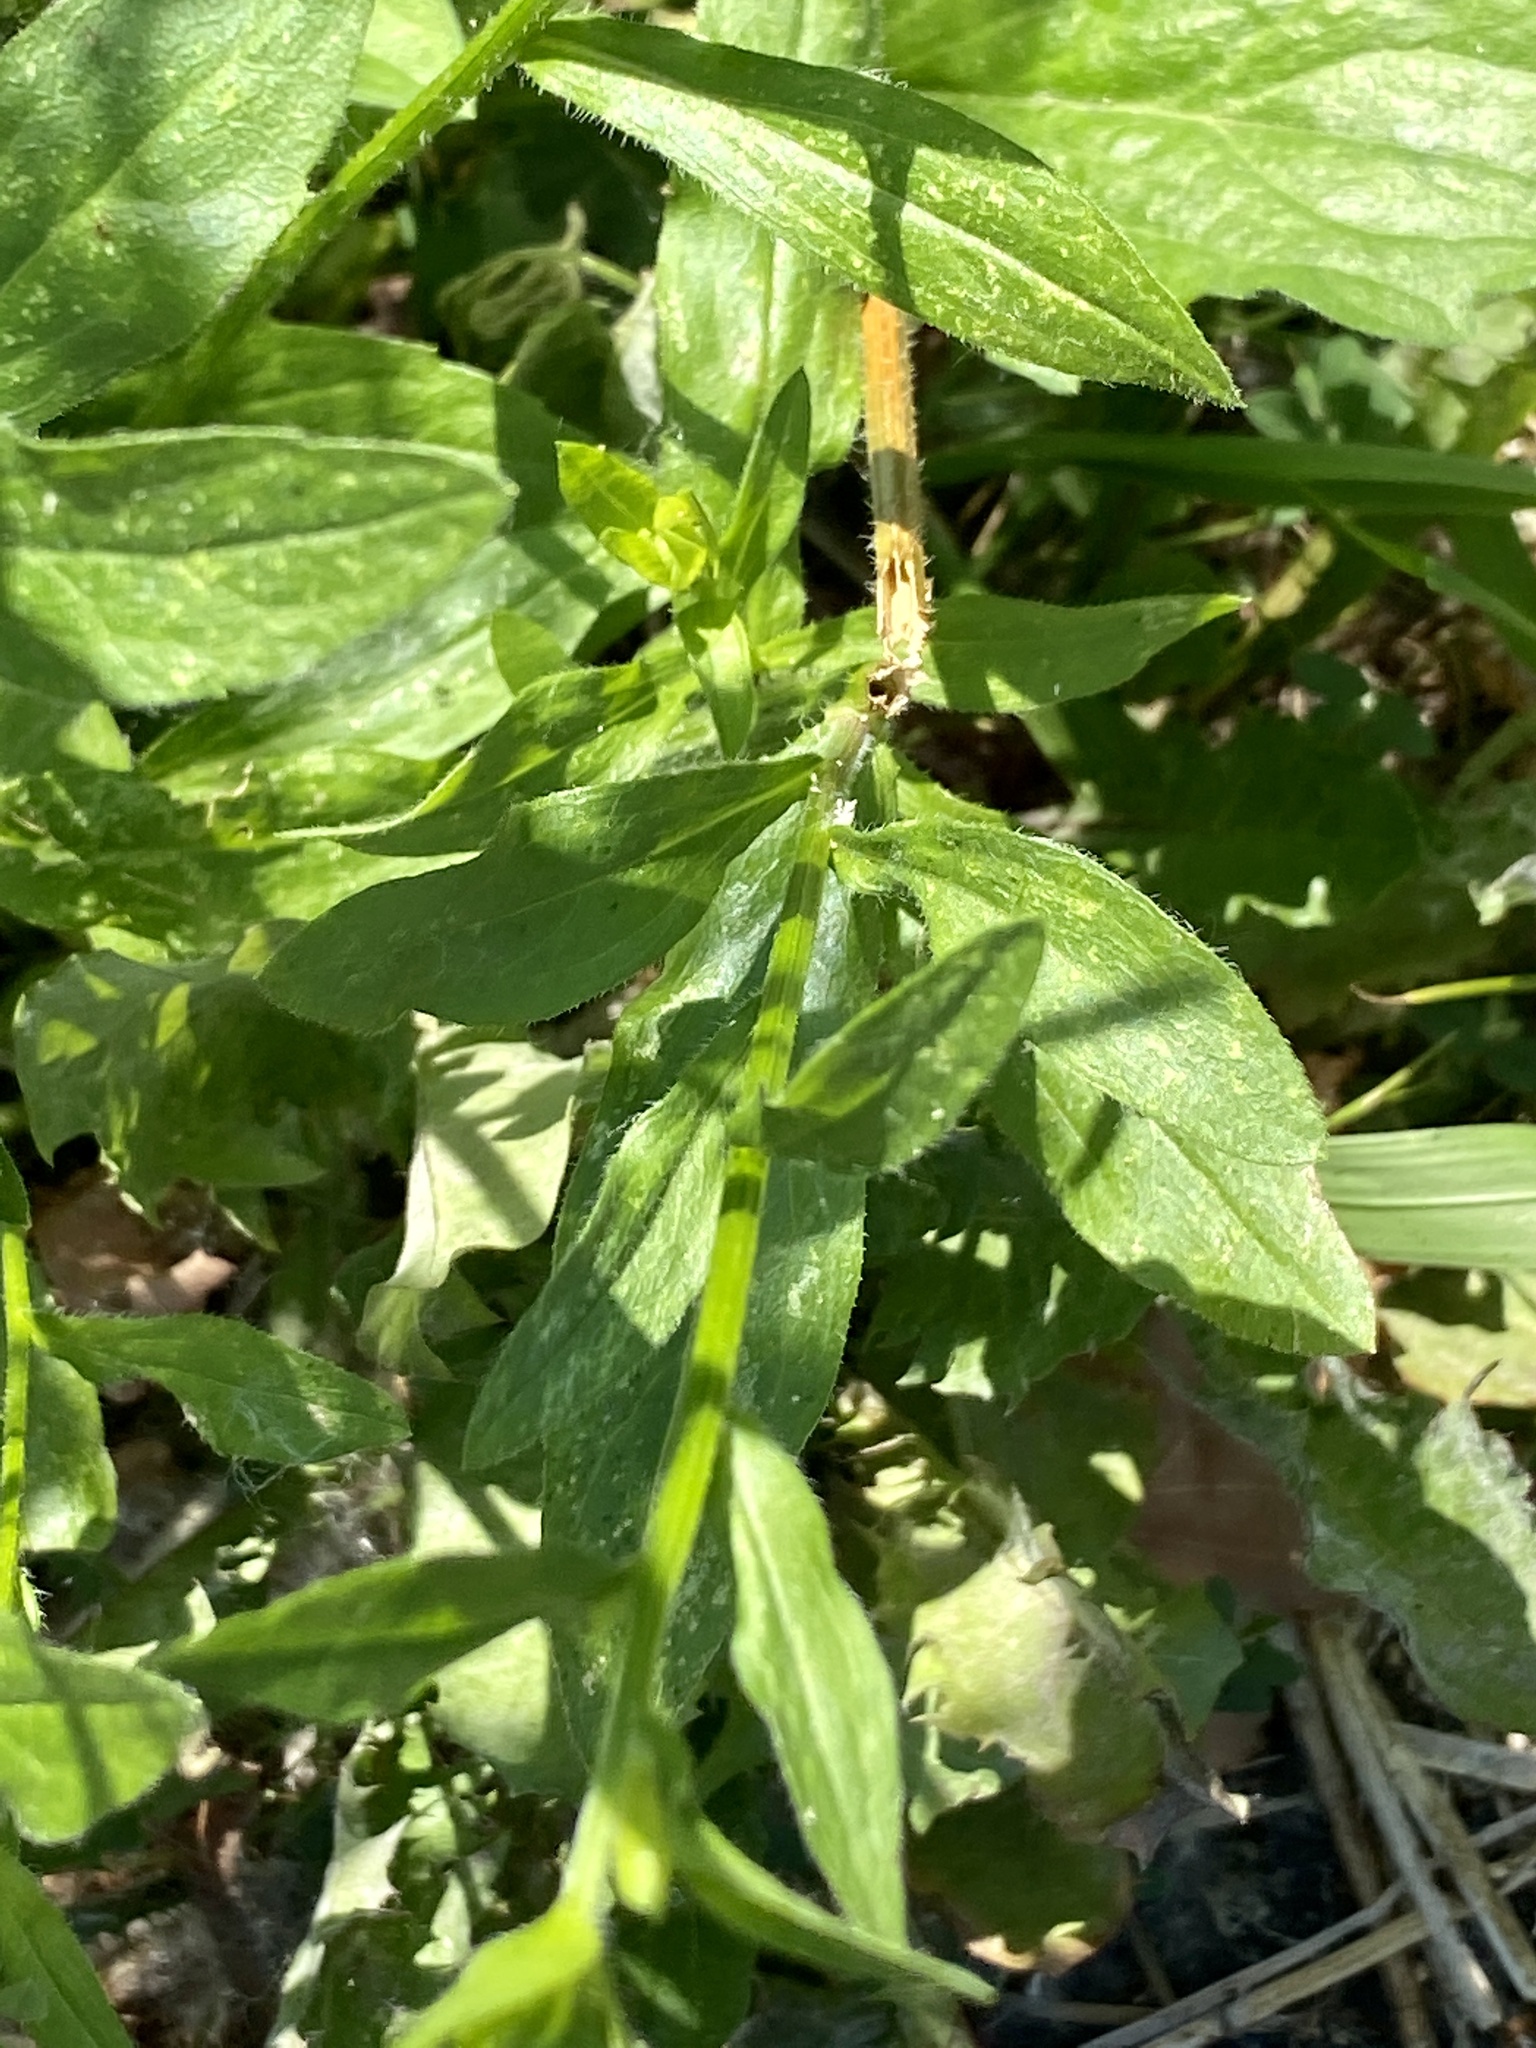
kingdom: Plantae
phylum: Tracheophyta
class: Magnoliopsida
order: Asterales
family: Asteraceae
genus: Erigeron
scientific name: Erigeron annuus
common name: Tall fleabane
